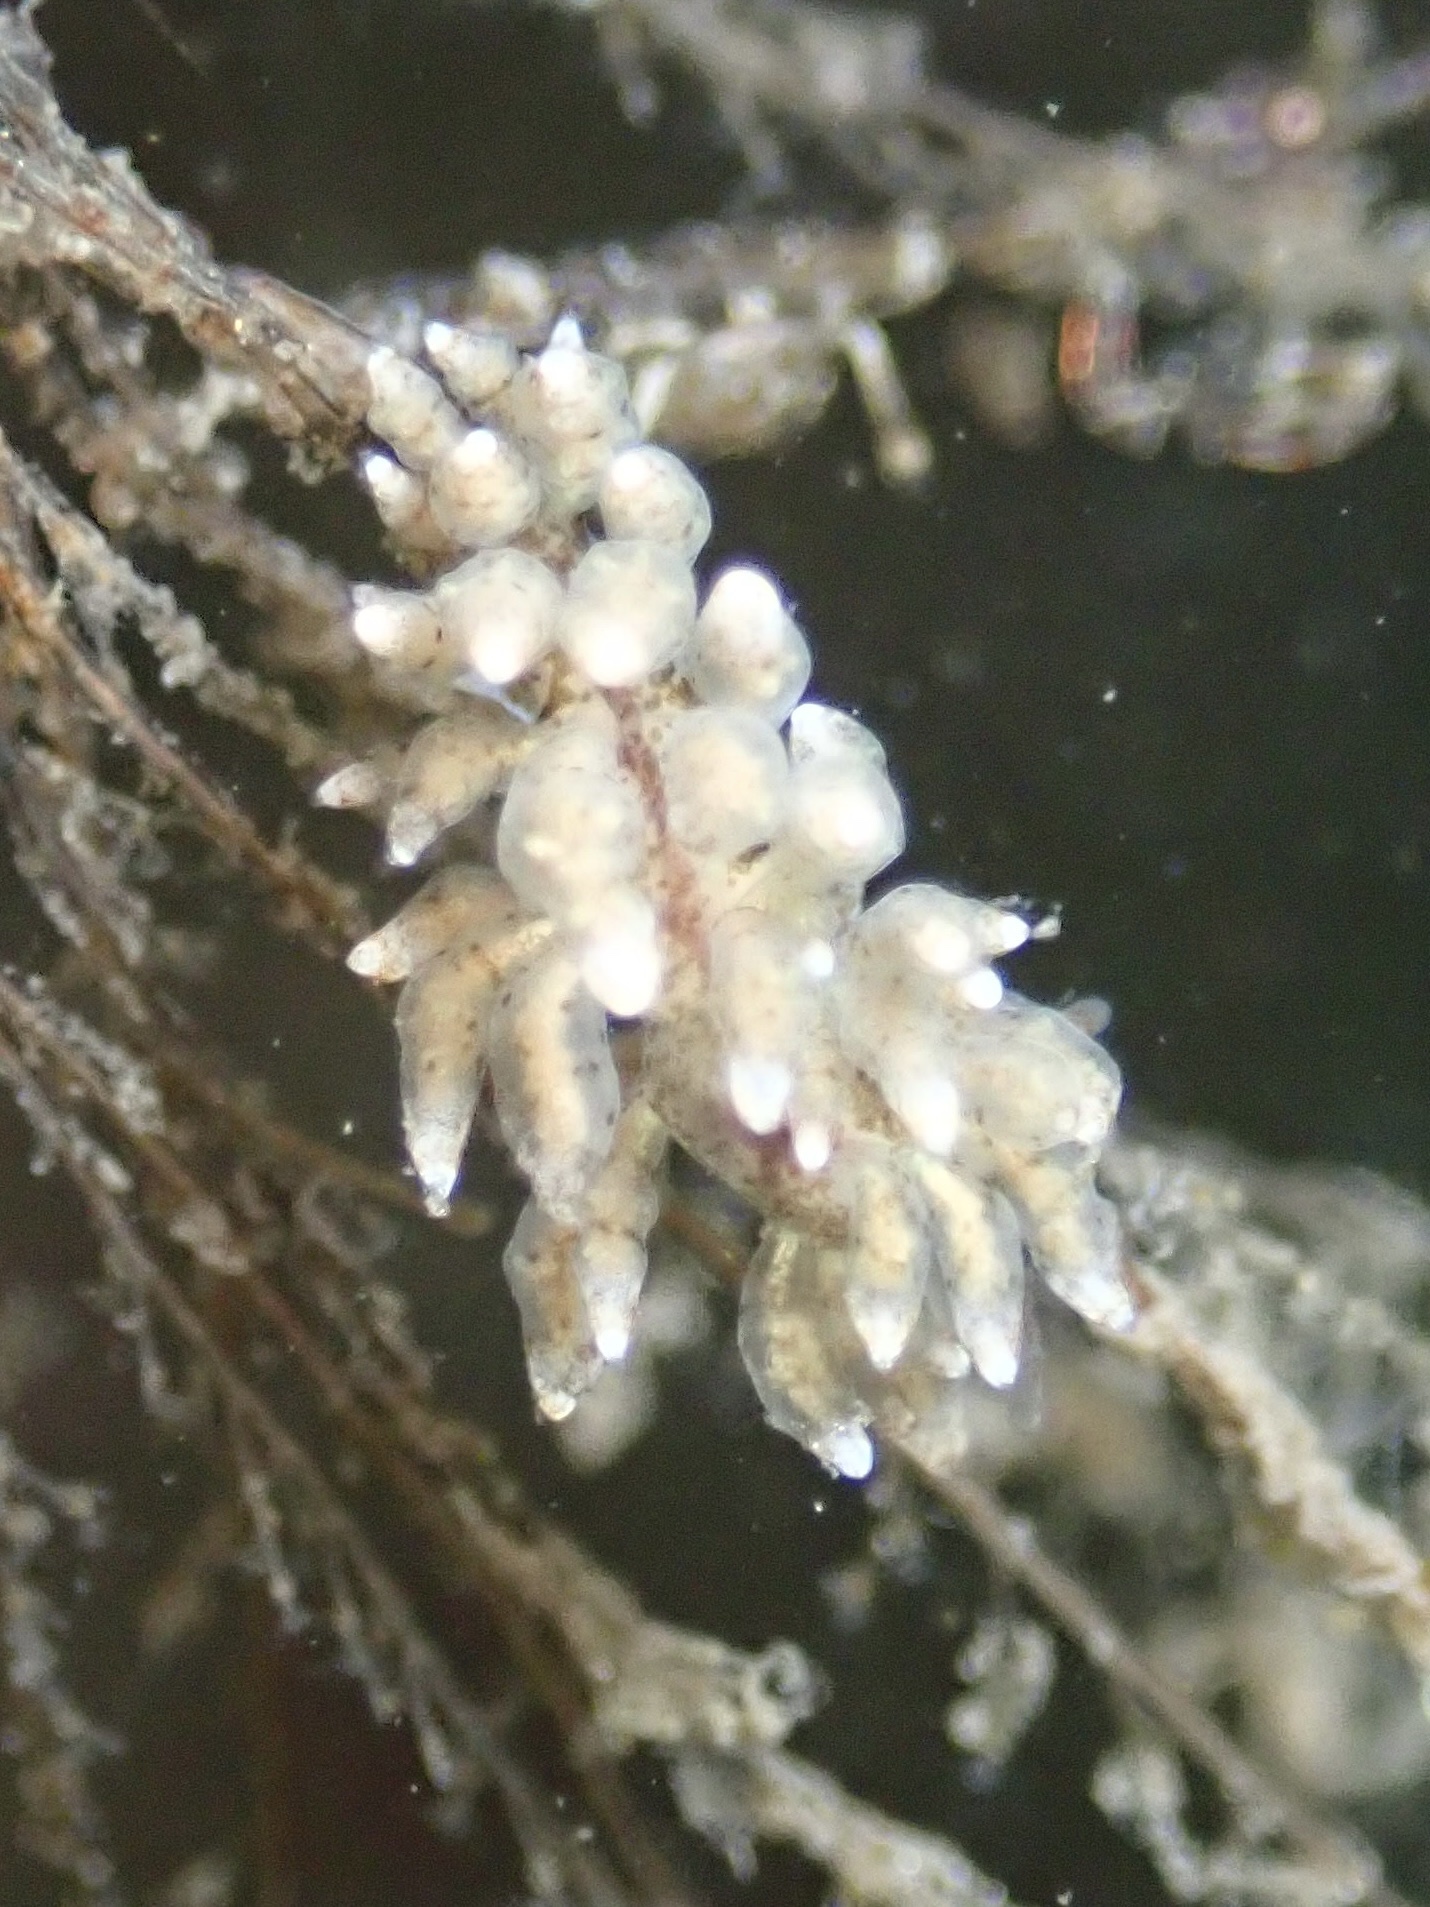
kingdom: Animalia
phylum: Mollusca
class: Gastropoda
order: Nudibranchia
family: Eubranchidae
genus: Eubranchus
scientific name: Eubranchus rustyus
